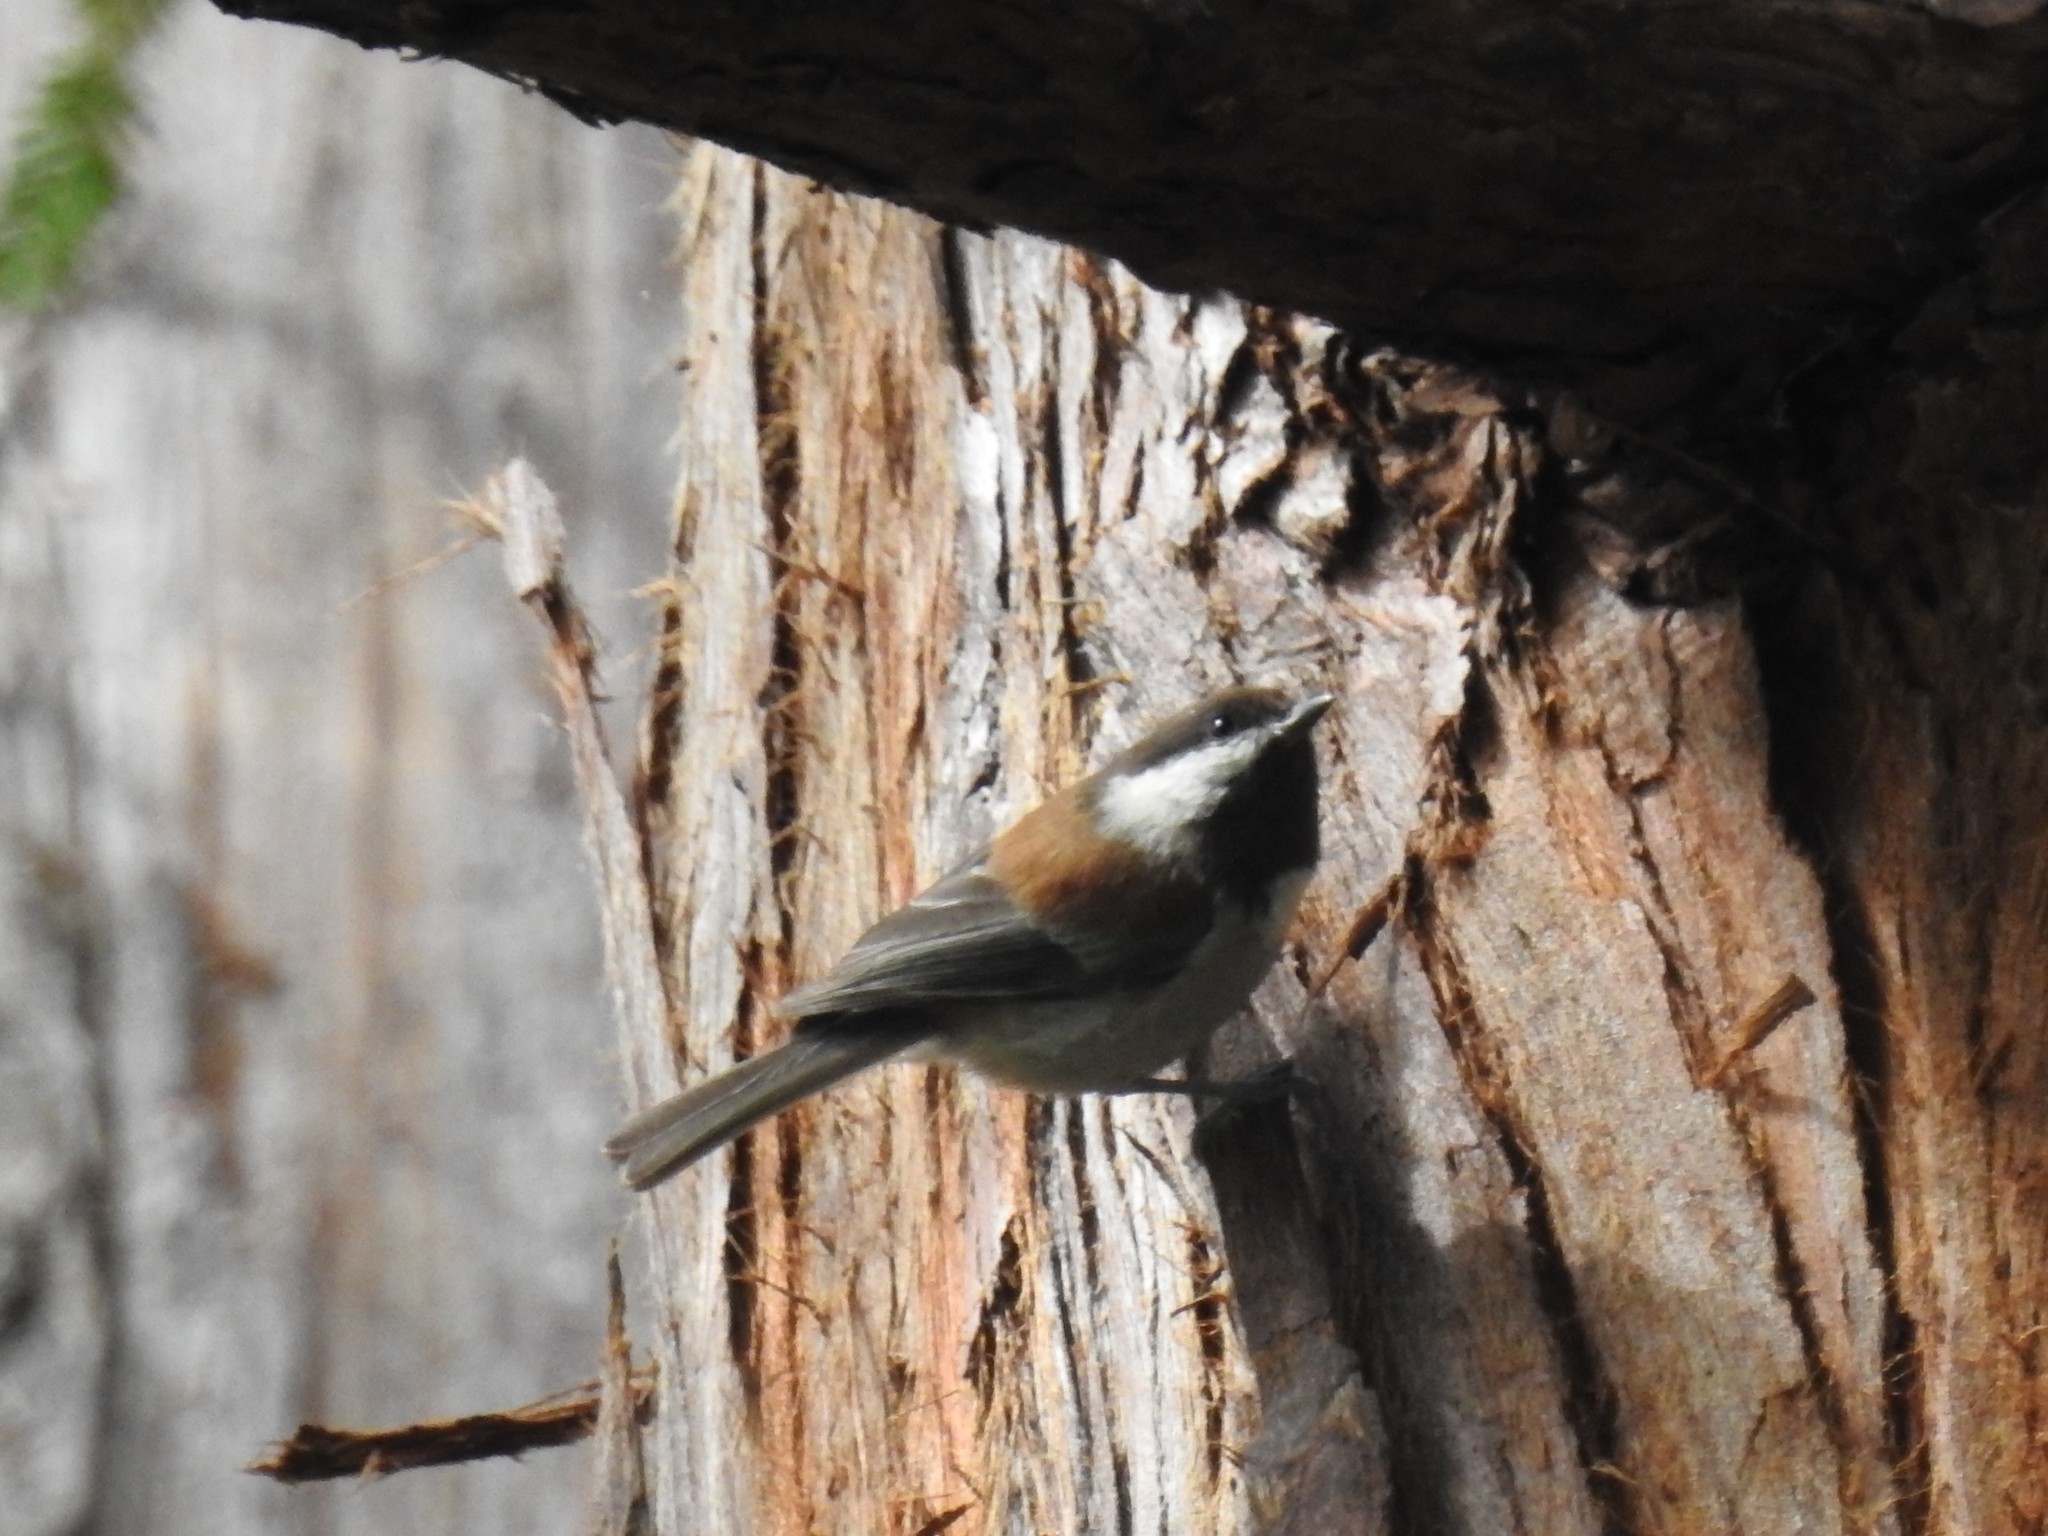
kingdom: Animalia
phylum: Chordata
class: Aves
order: Passeriformes
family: Paridae
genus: Poecile
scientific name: Poecile rufescens
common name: Chestnut-backed chickadee
